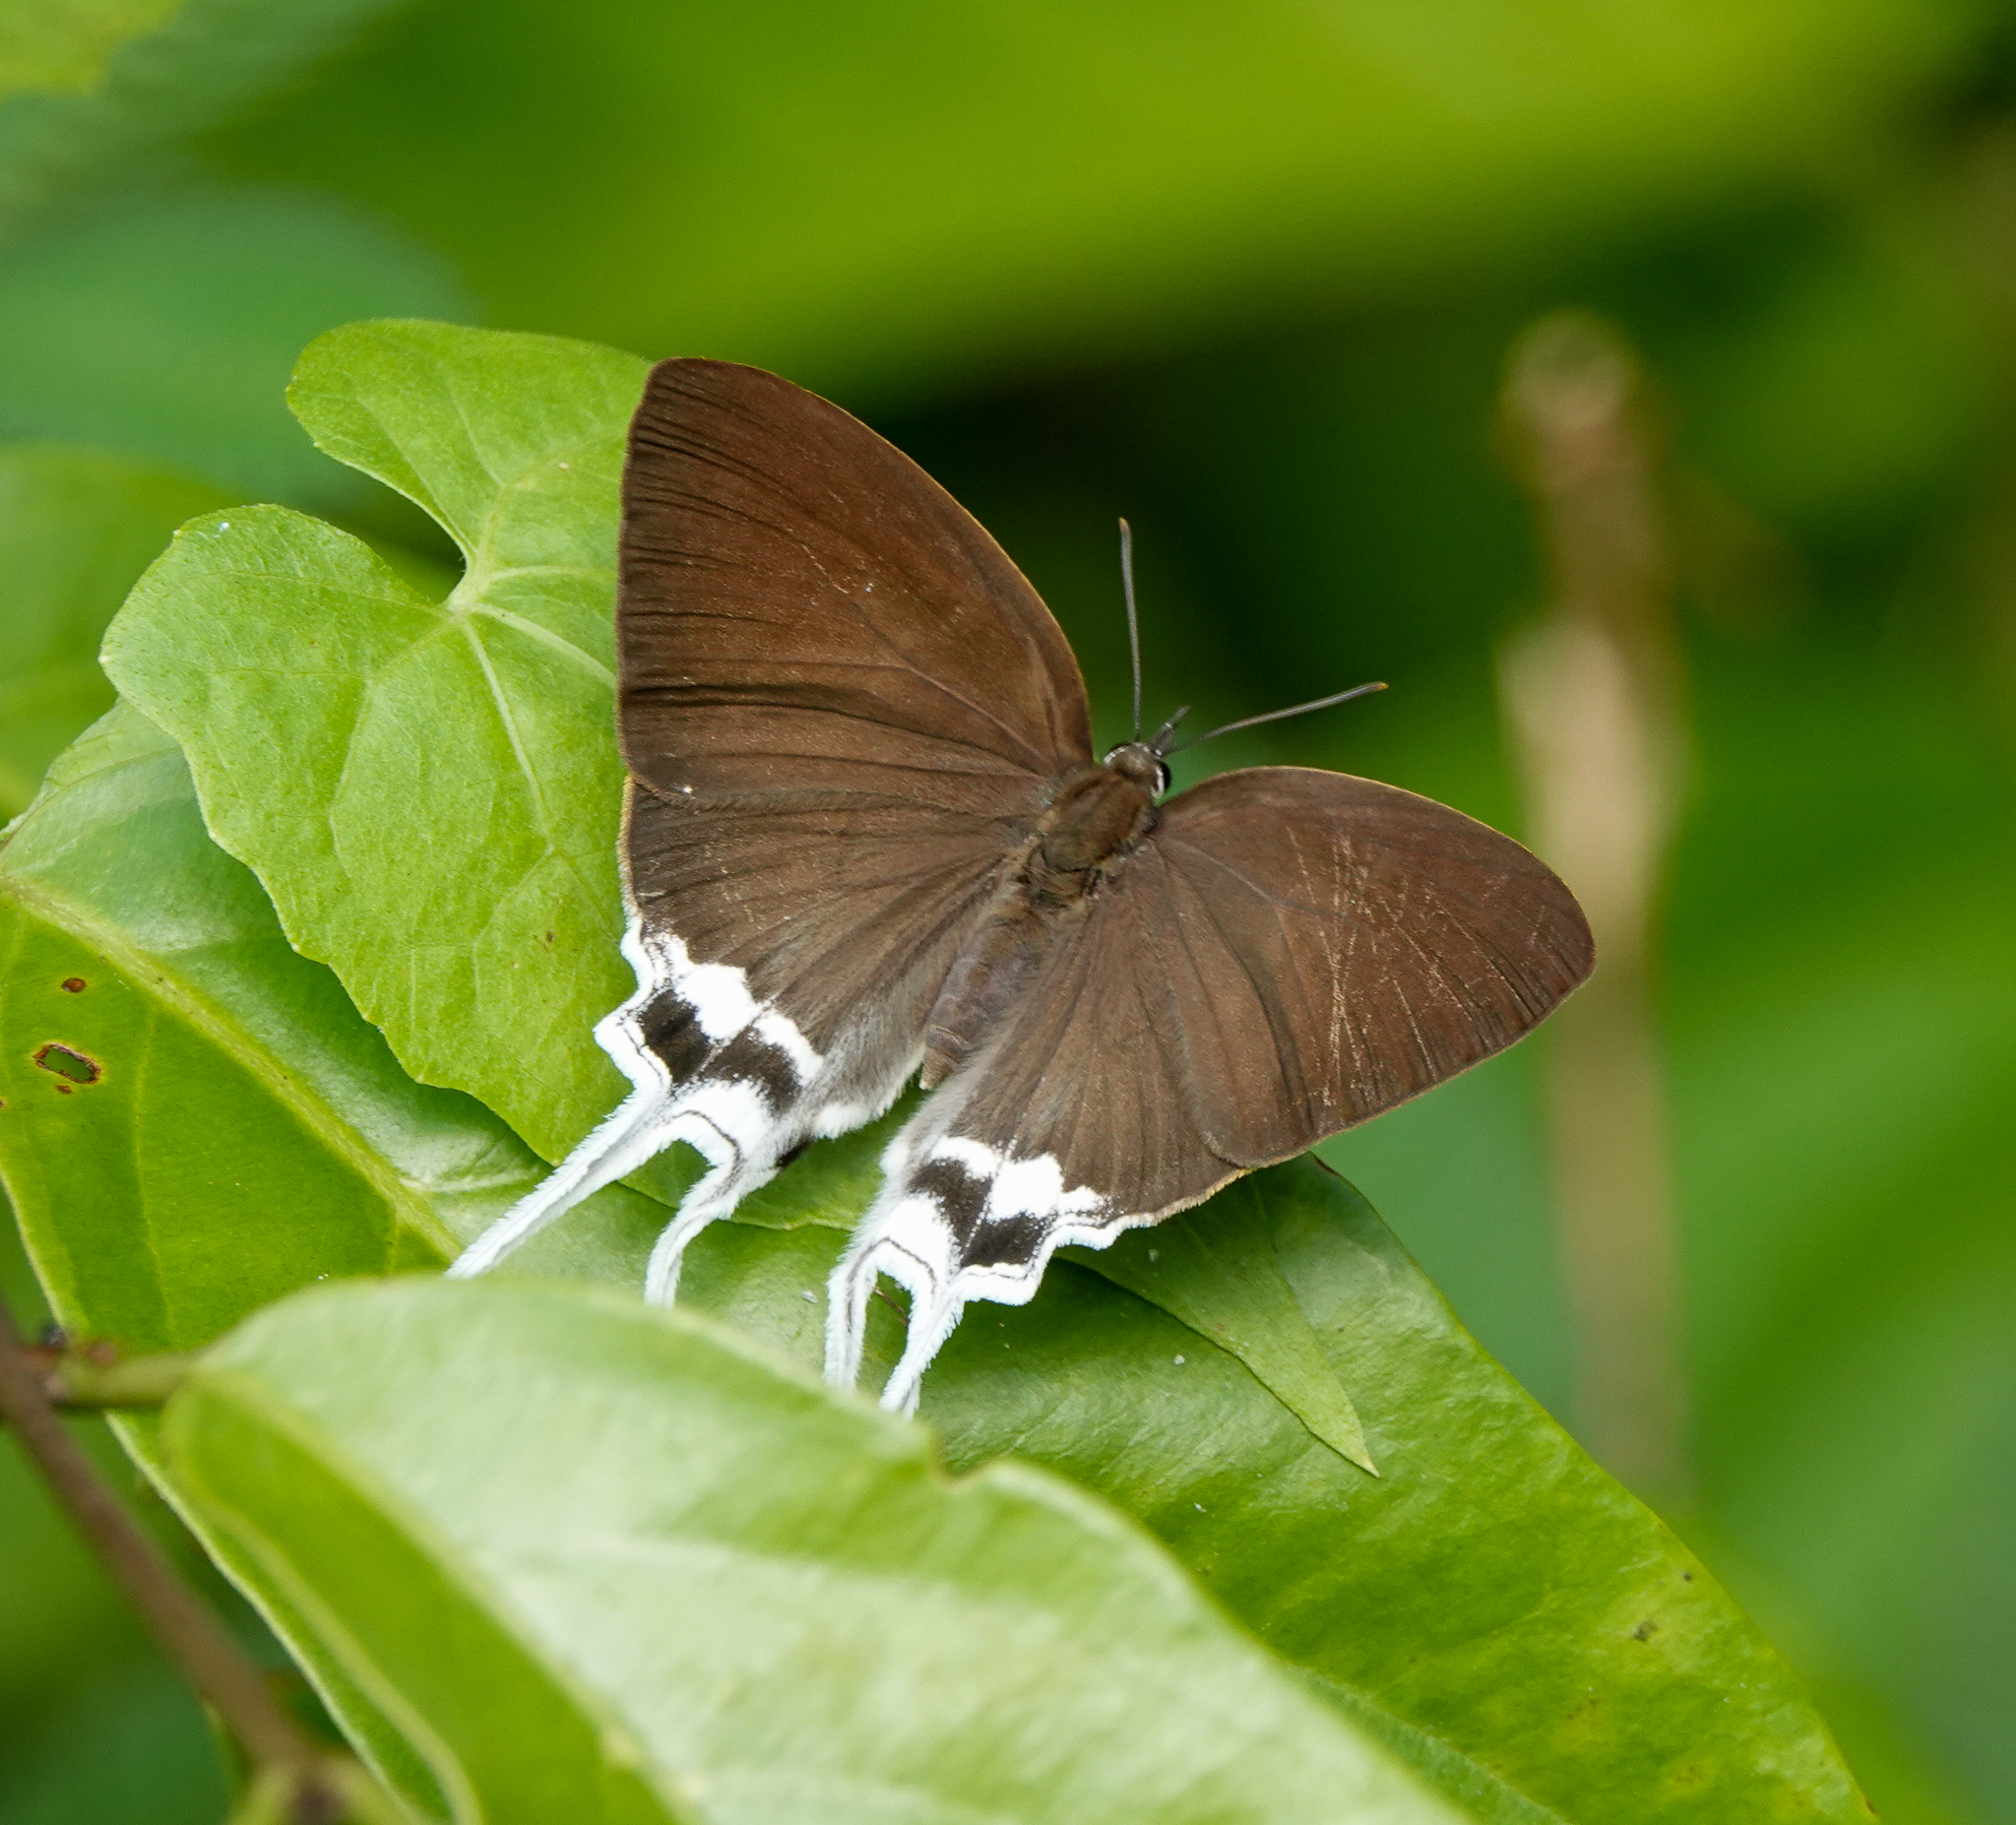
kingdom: Animalia
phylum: Arthropoda
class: Insecta
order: Lepidoptera
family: Lycaenidae
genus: Cheritra
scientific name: Cheritra freja
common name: Common imperial
